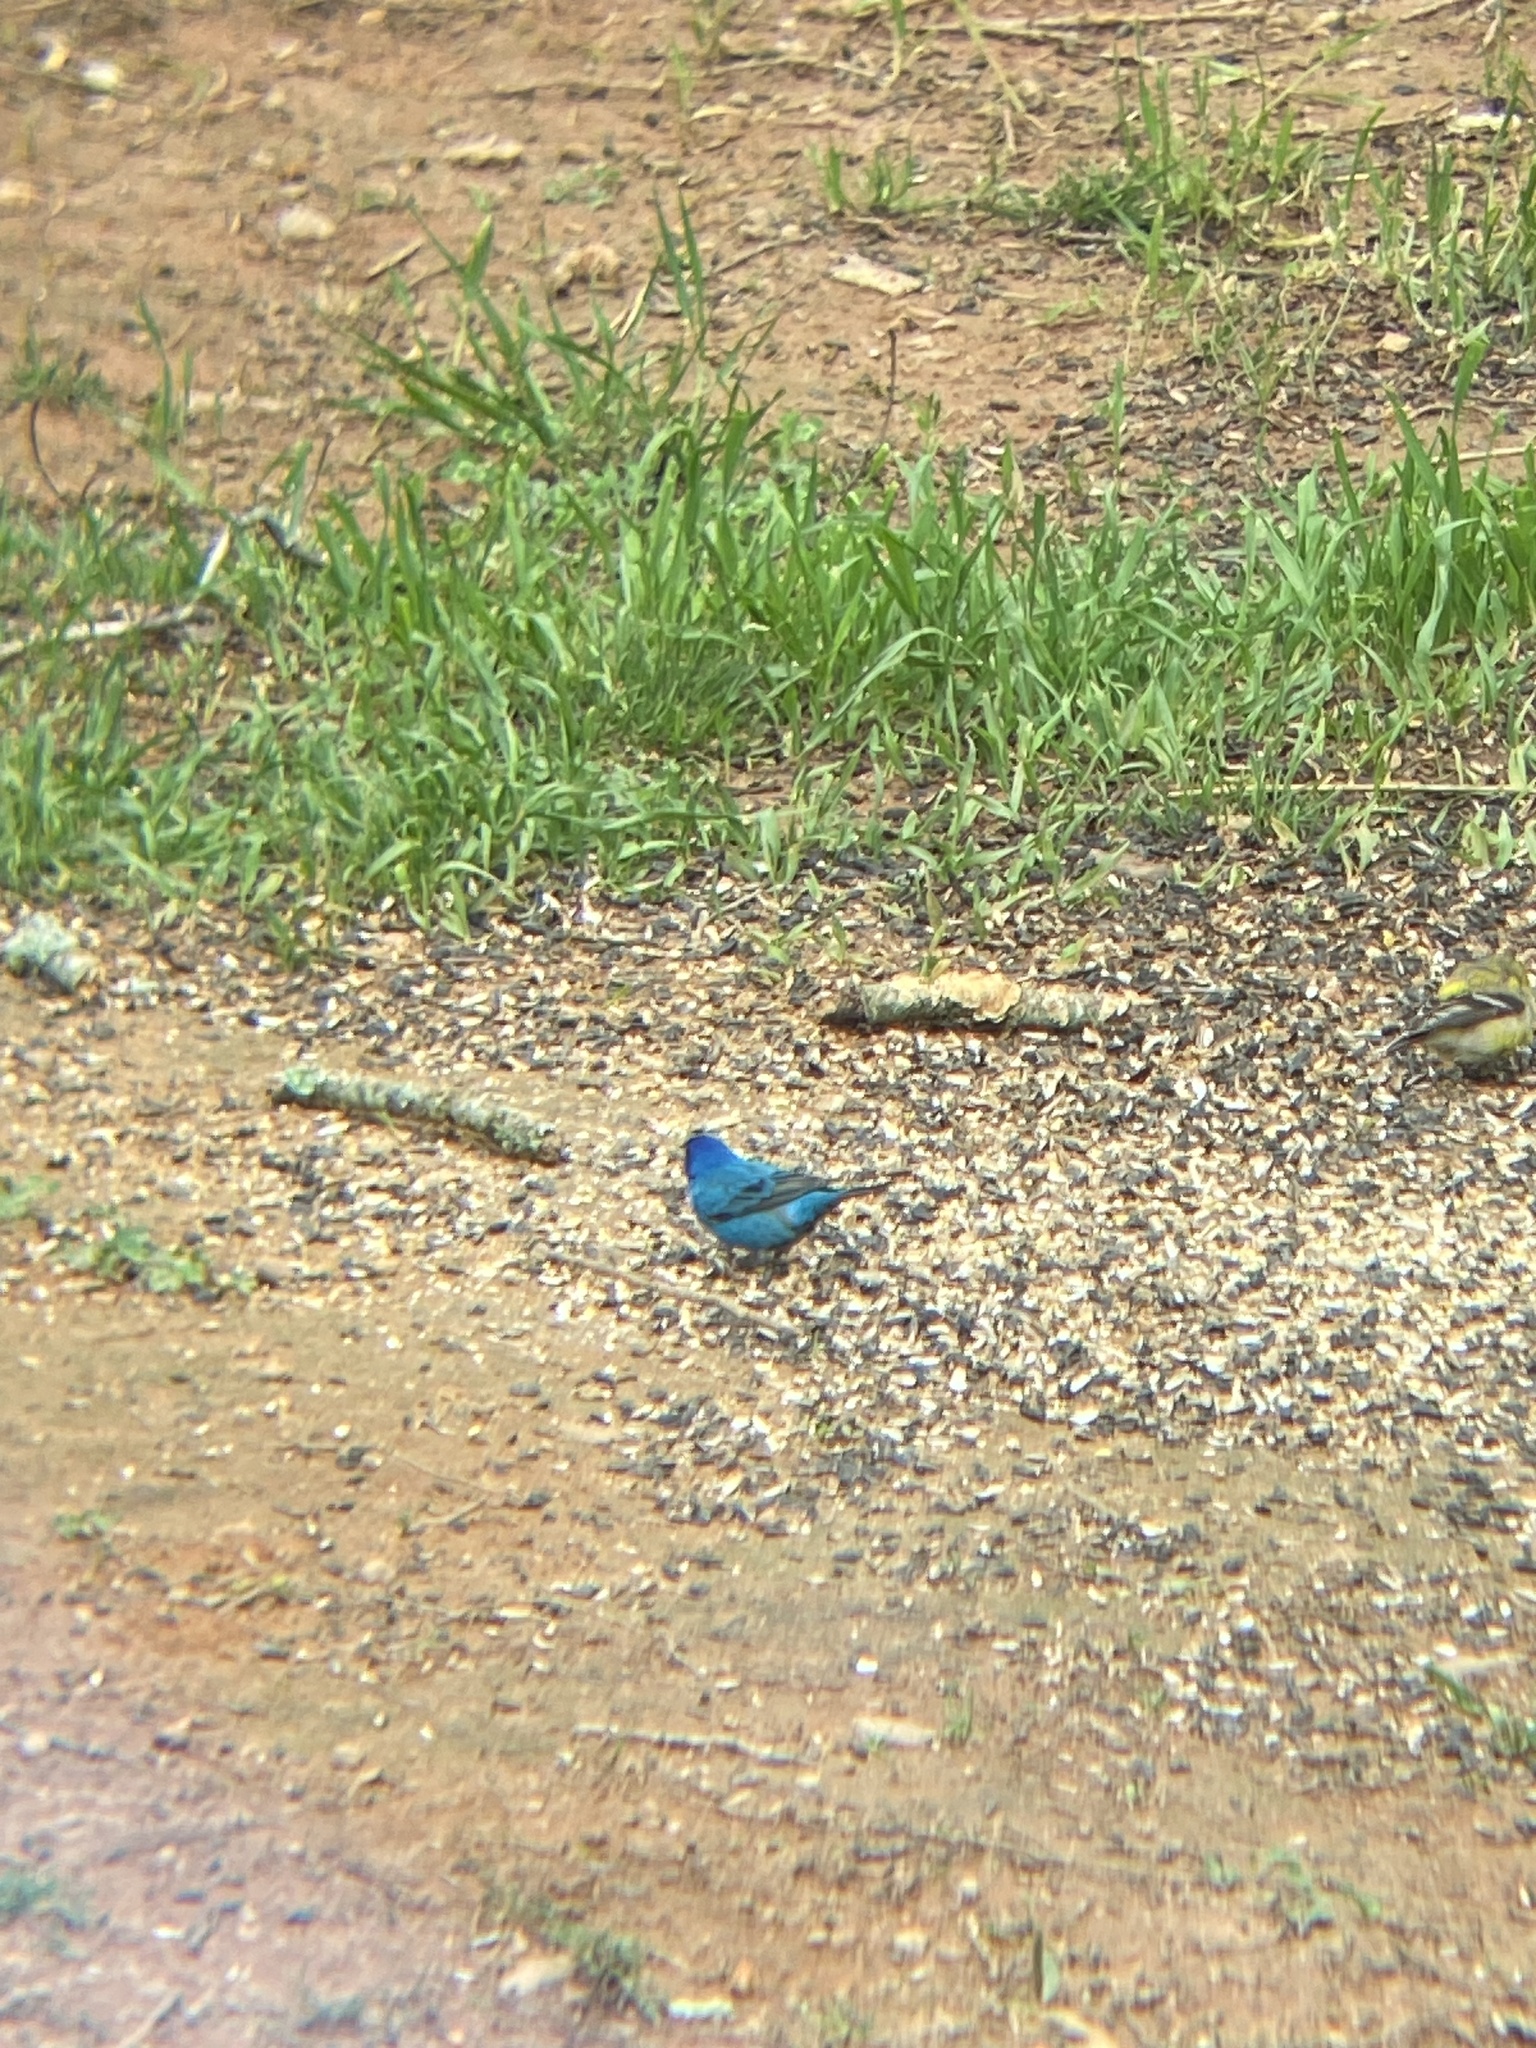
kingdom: Animalia
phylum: Chordata
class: Aves
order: Passeriformes
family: Cardinalidae
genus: Passerina
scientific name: Passerina cyanea
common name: Indigo bunting
